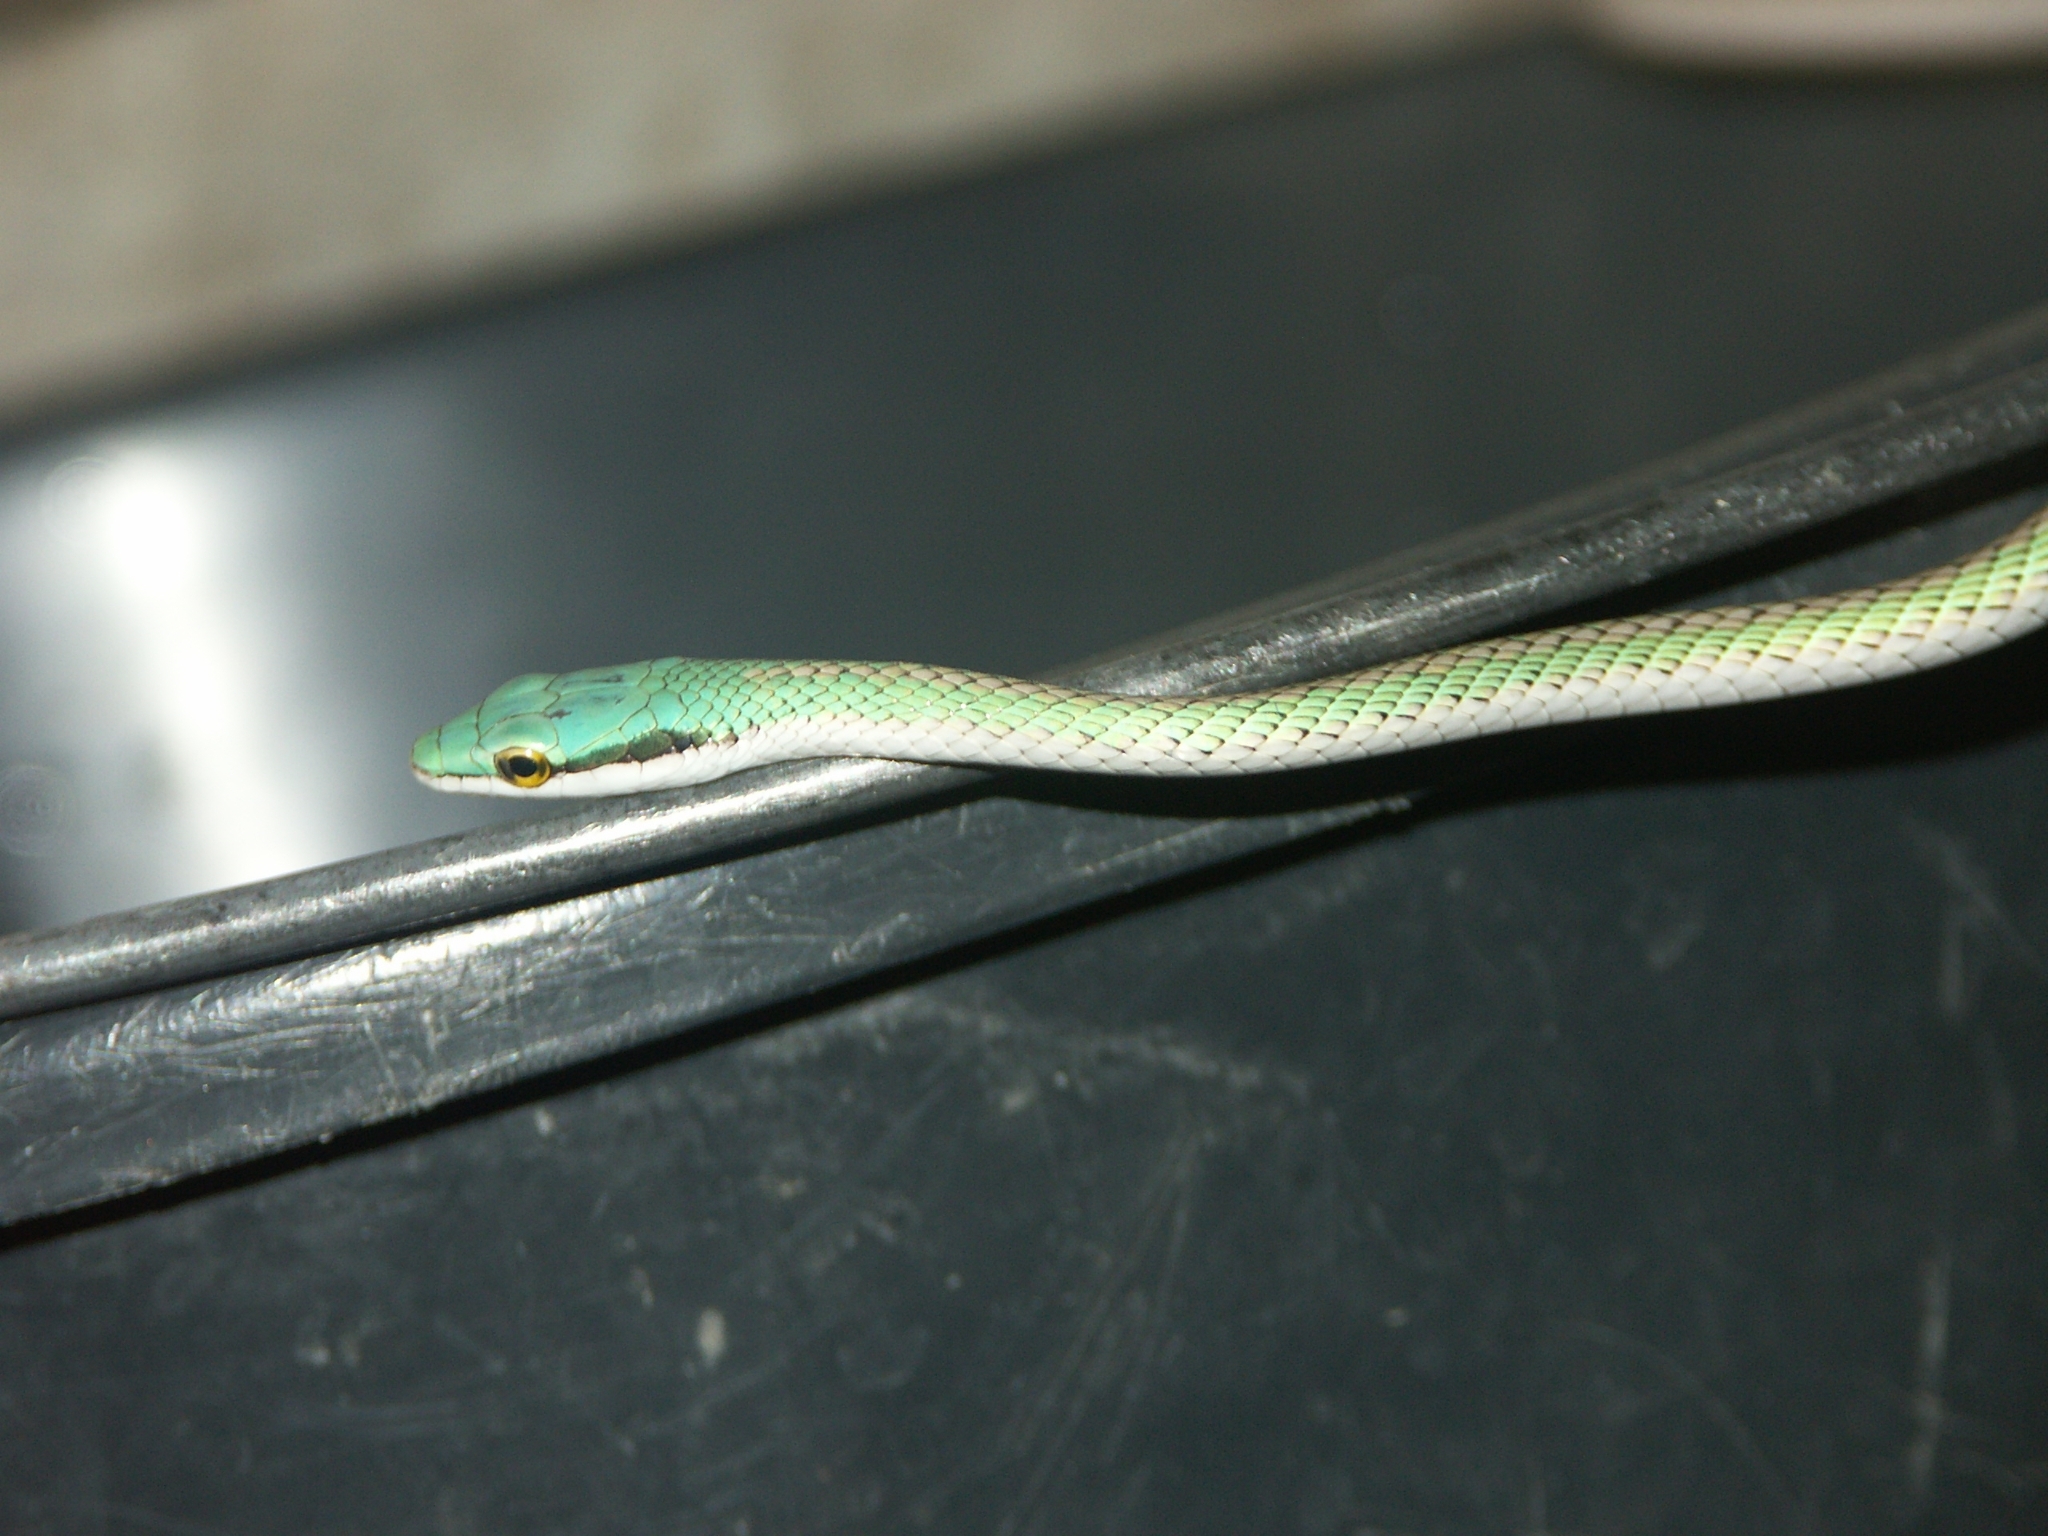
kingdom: Animalia
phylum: Chordata
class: Squamata
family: Colubridae
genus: Leptophis
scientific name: Leptophis ahaetulla
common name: Parrot snake
